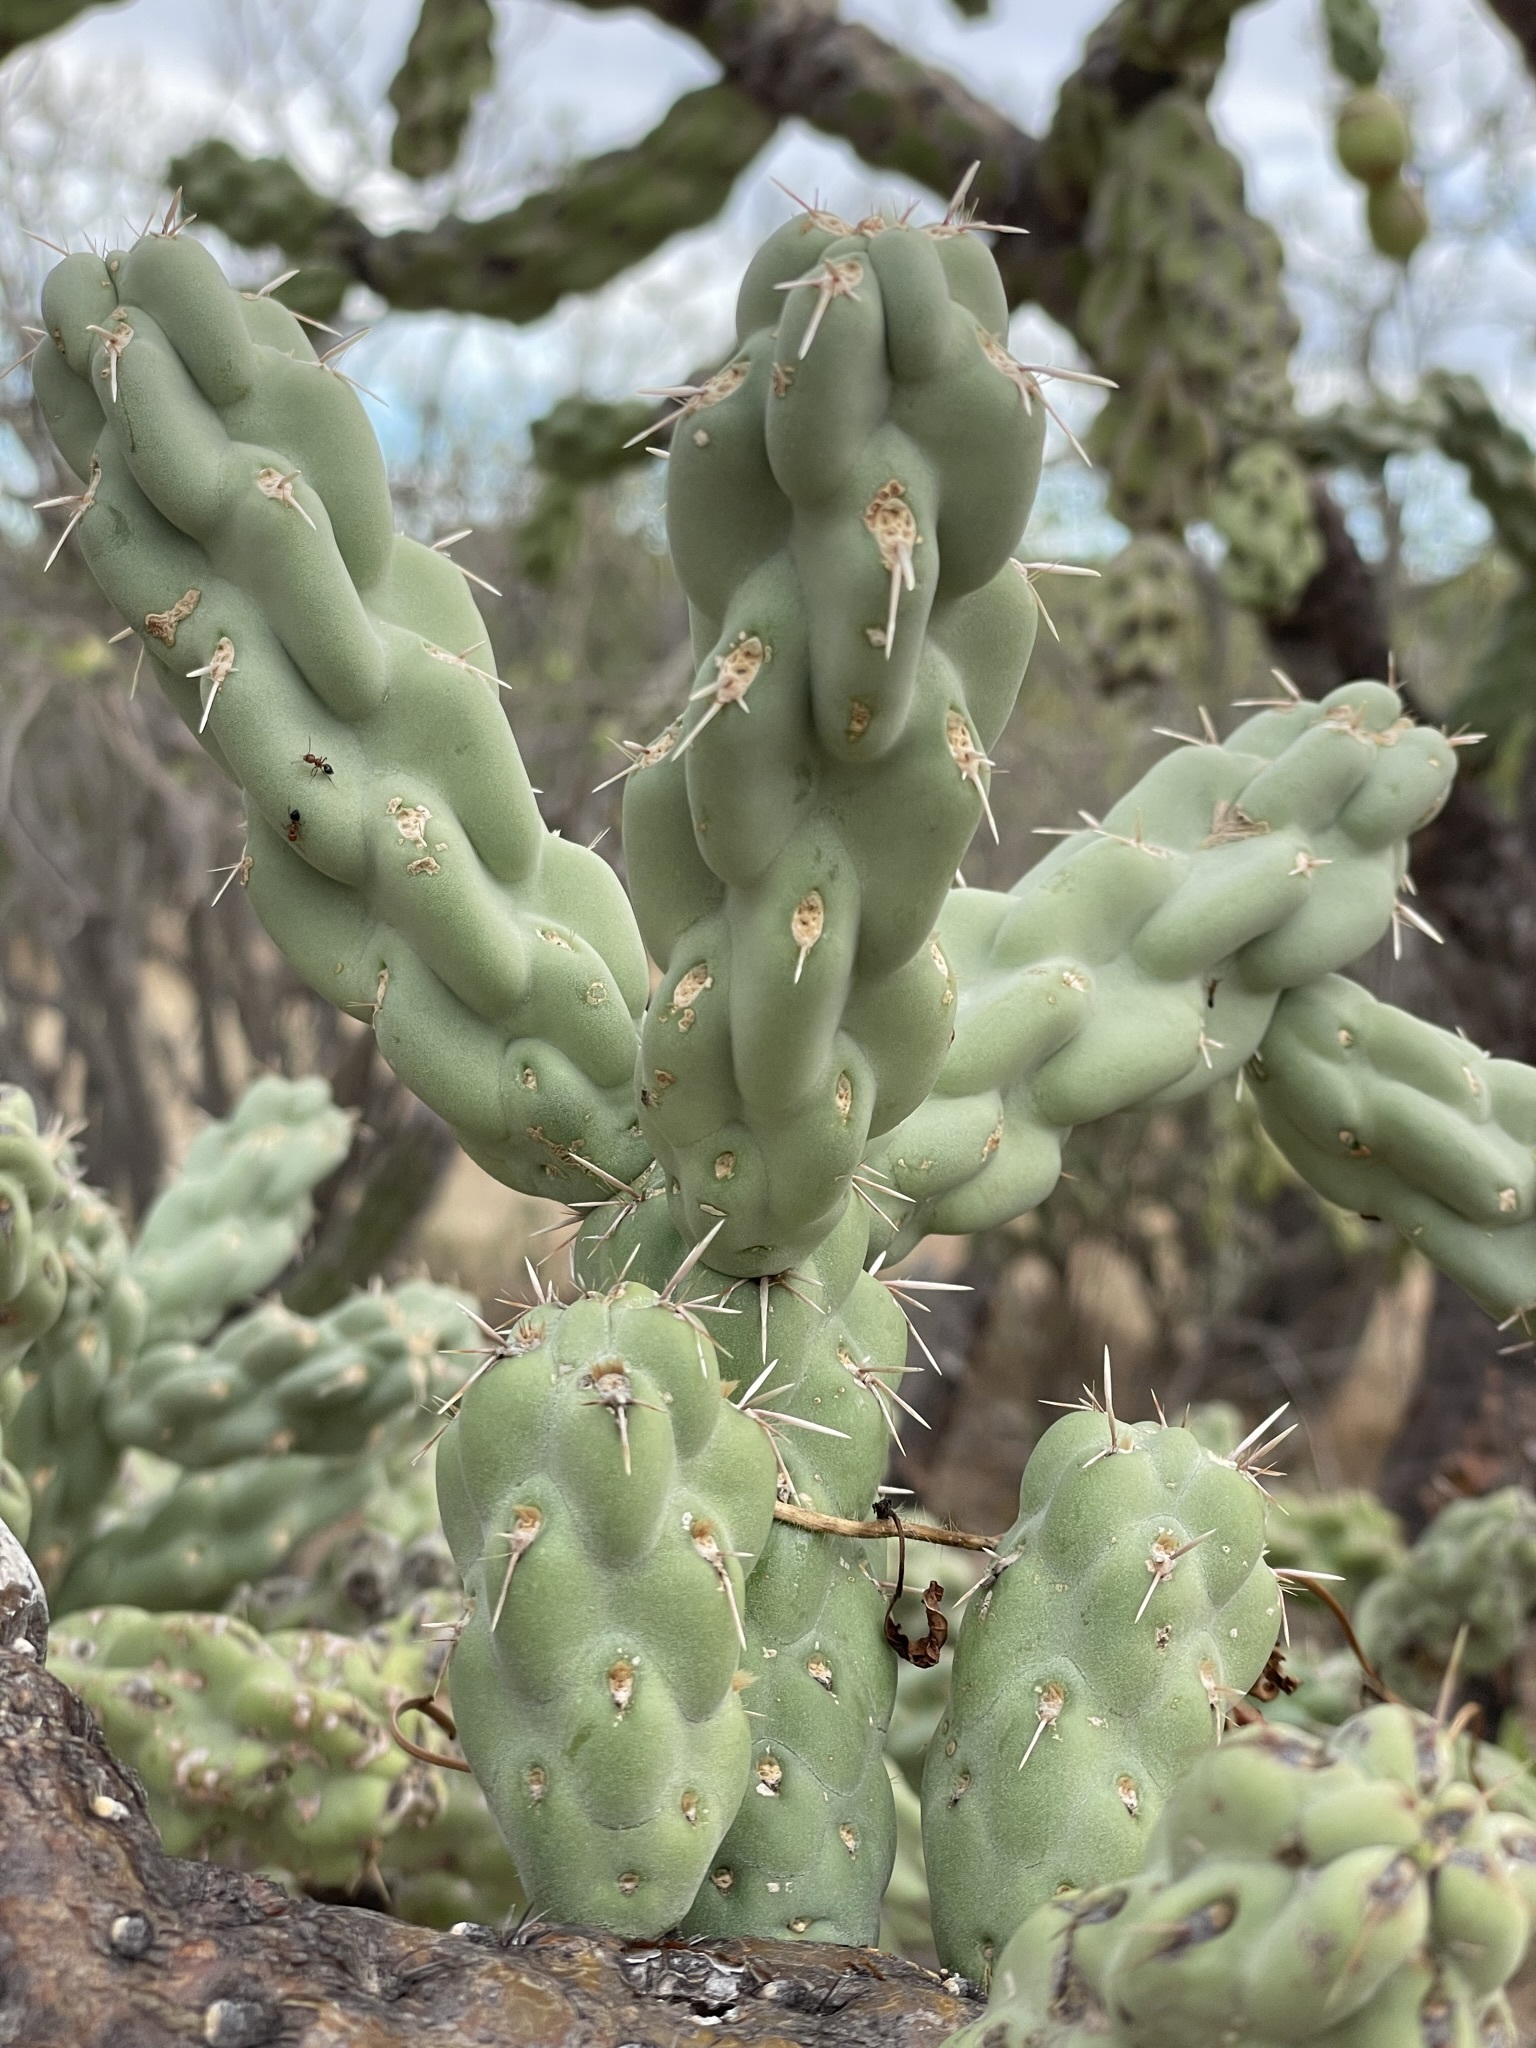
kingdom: Plantae
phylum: Tracheophyta
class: Magnoliopsida
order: Caryophyllales
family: Cactaceae
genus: Cylindropuntia
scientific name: Cylindropuntia cholla
